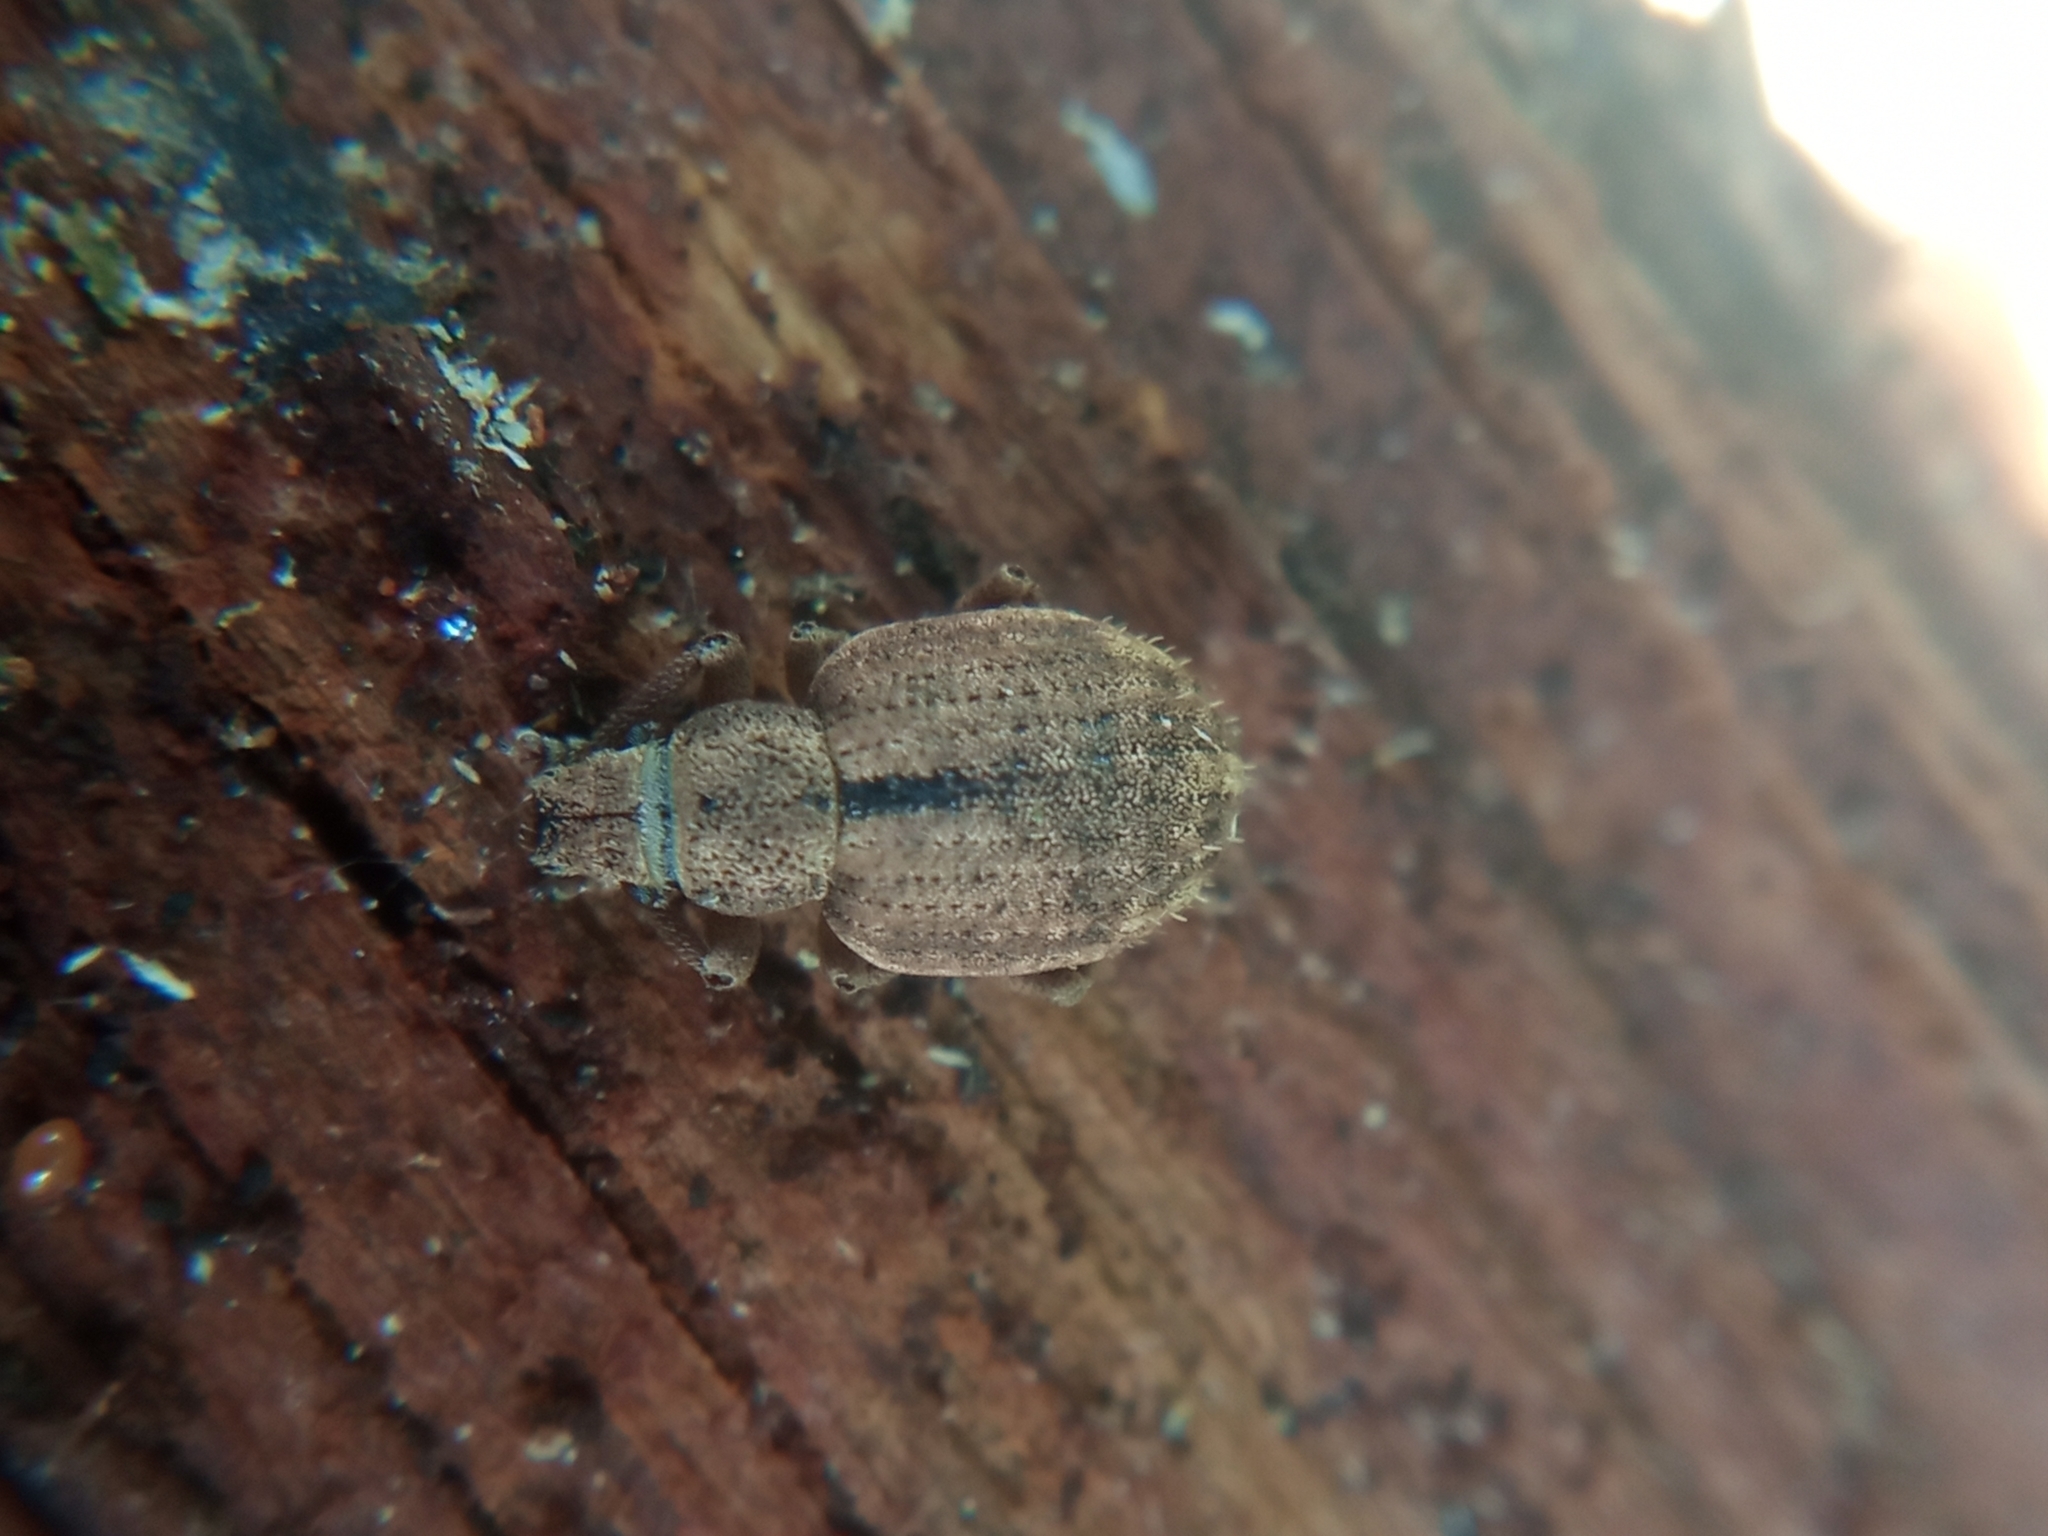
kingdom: Animalia
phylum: Arthropoda
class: Insecta
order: Coleoptera
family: Curculionidae
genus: Strophosoma
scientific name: Strophosoma melanogrammum
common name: Weevil
